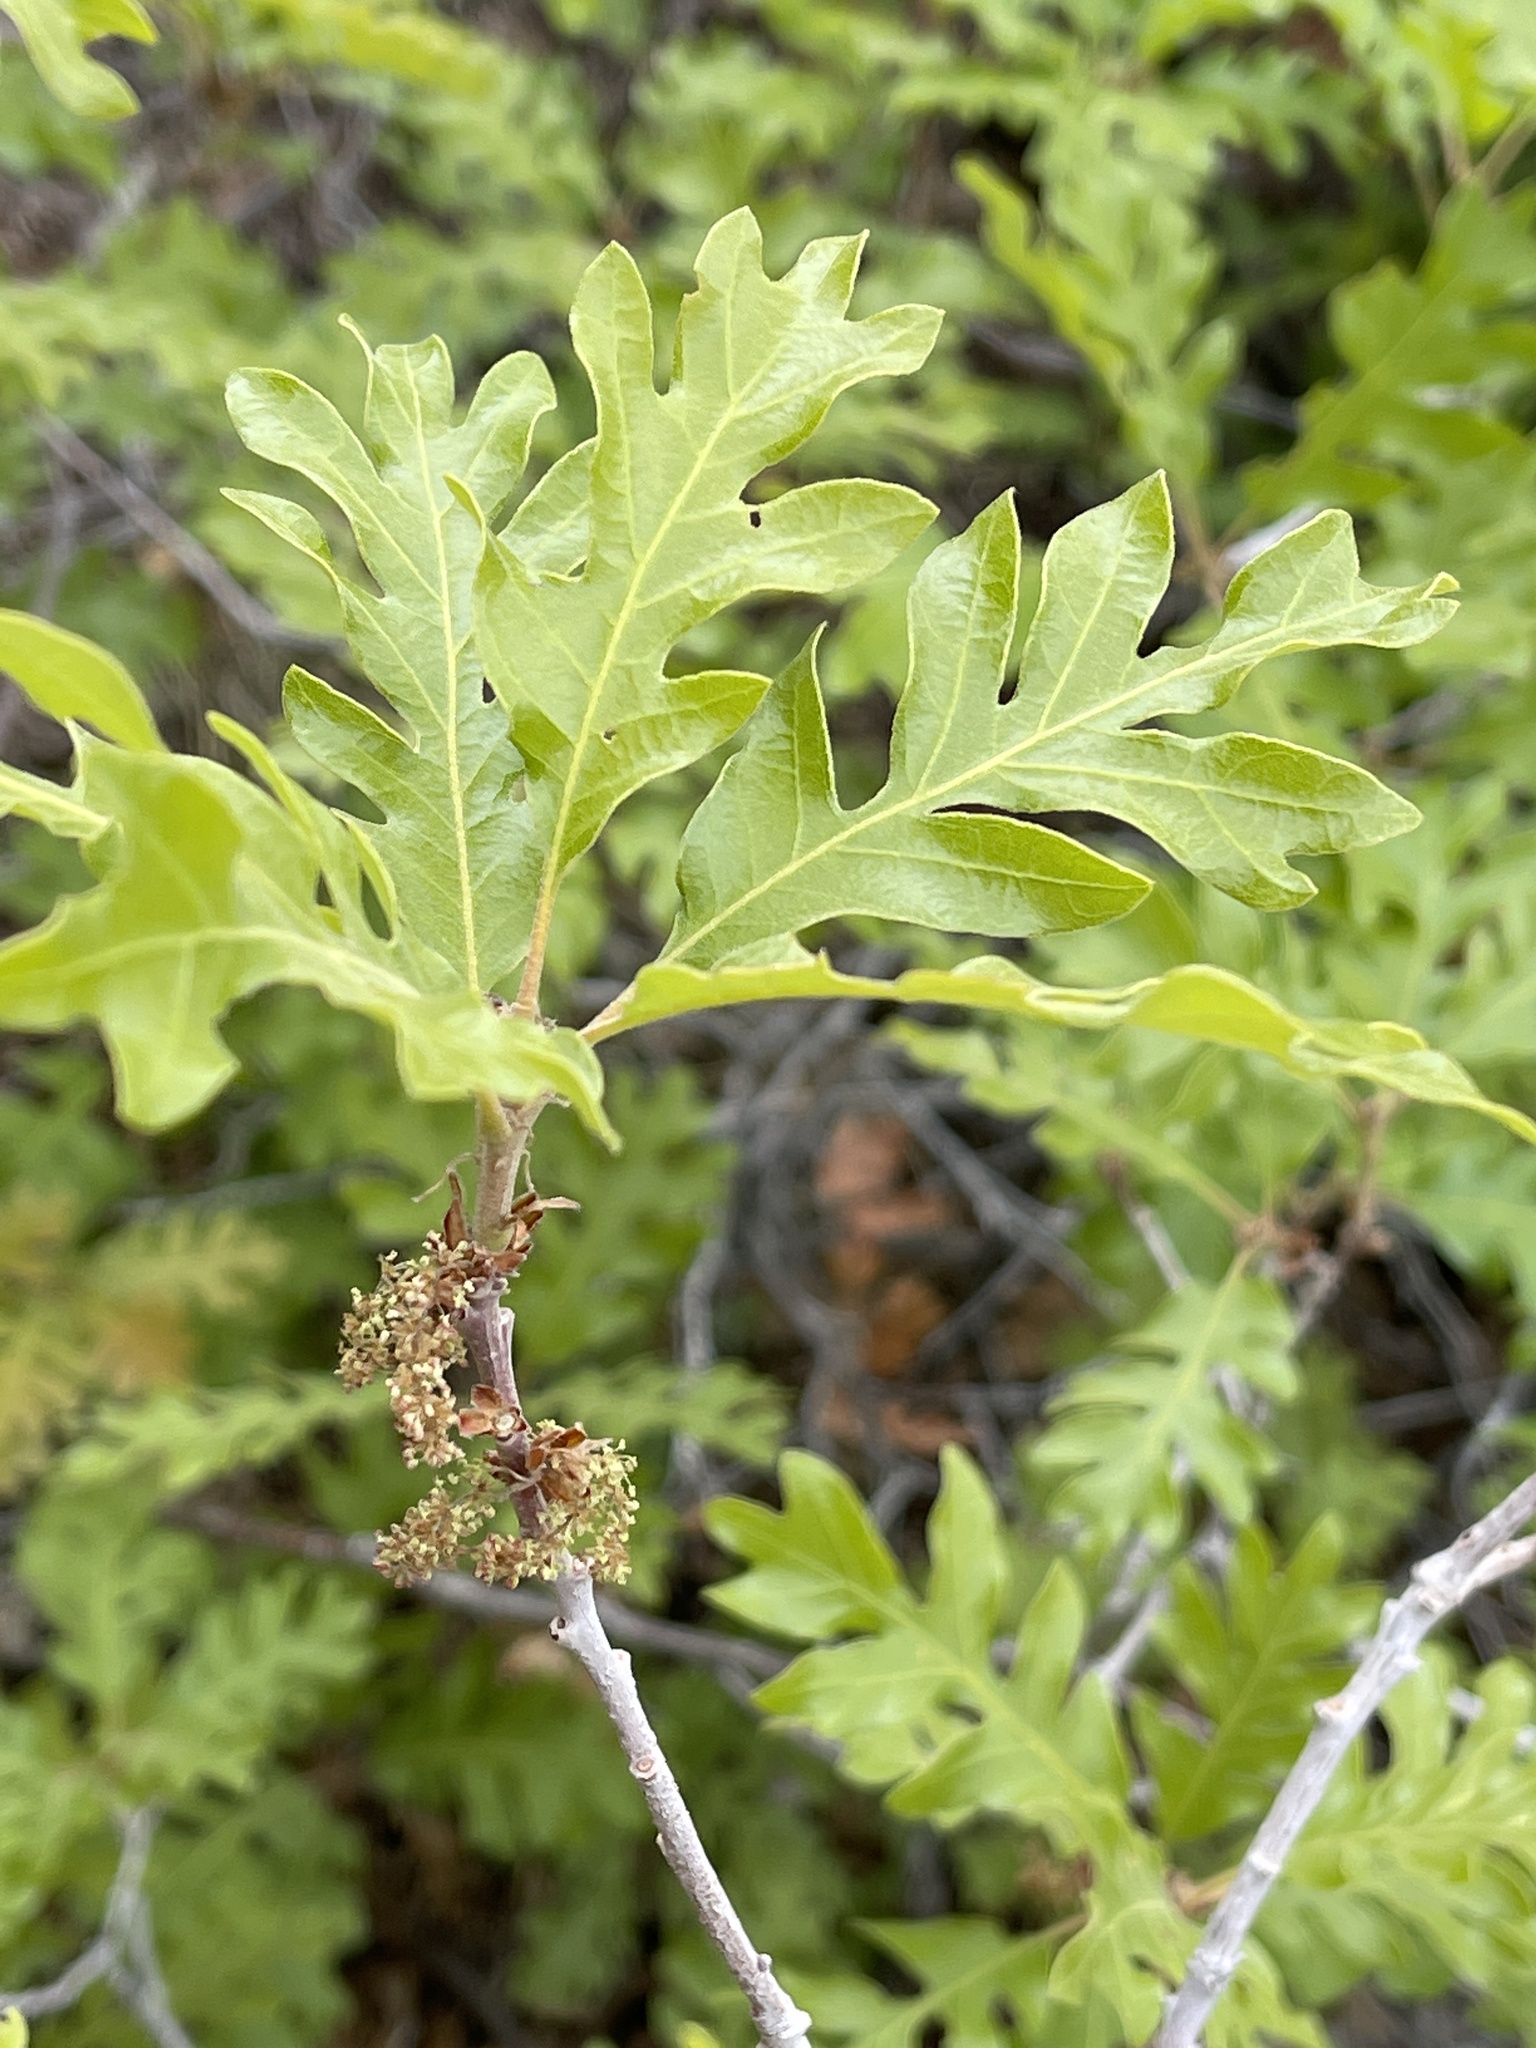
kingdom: Plantae
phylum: Tracheophyta
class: Magnoliopsida
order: Fagales
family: Fagaceae
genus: Quercus
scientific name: Quercus gambelii
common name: Gambel oak
